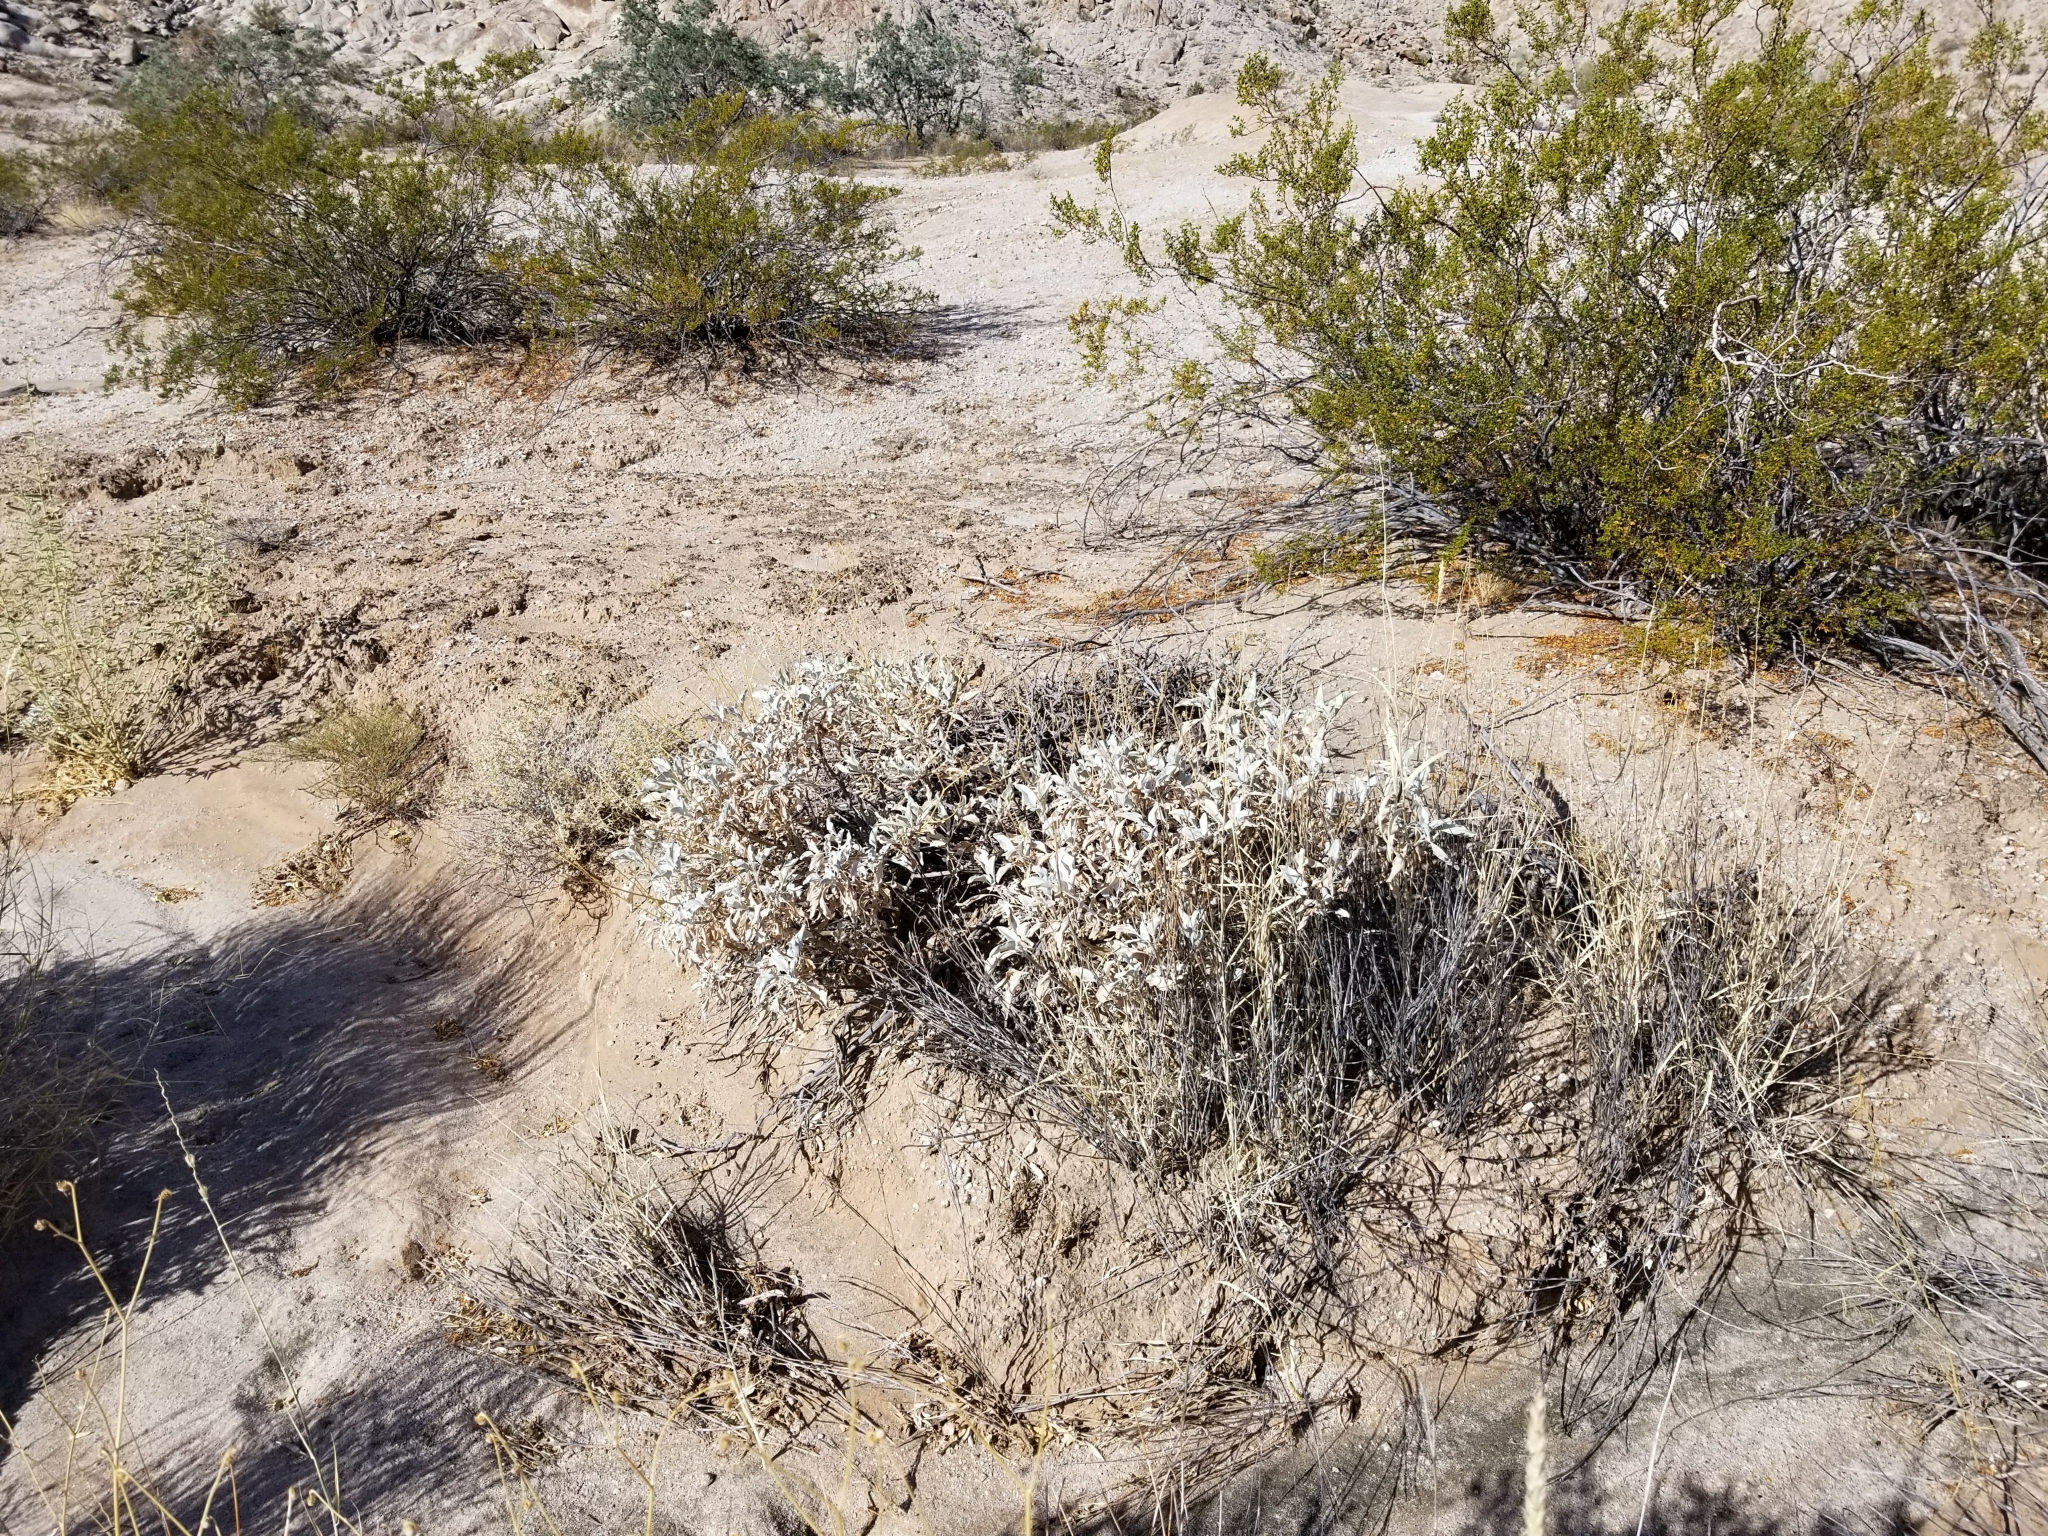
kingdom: Plantae
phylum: Tracheophyta
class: Magnoliopsida
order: Asterales
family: Asteraceae
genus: Encelia
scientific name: Encelia farinosa
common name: Brittlebush
